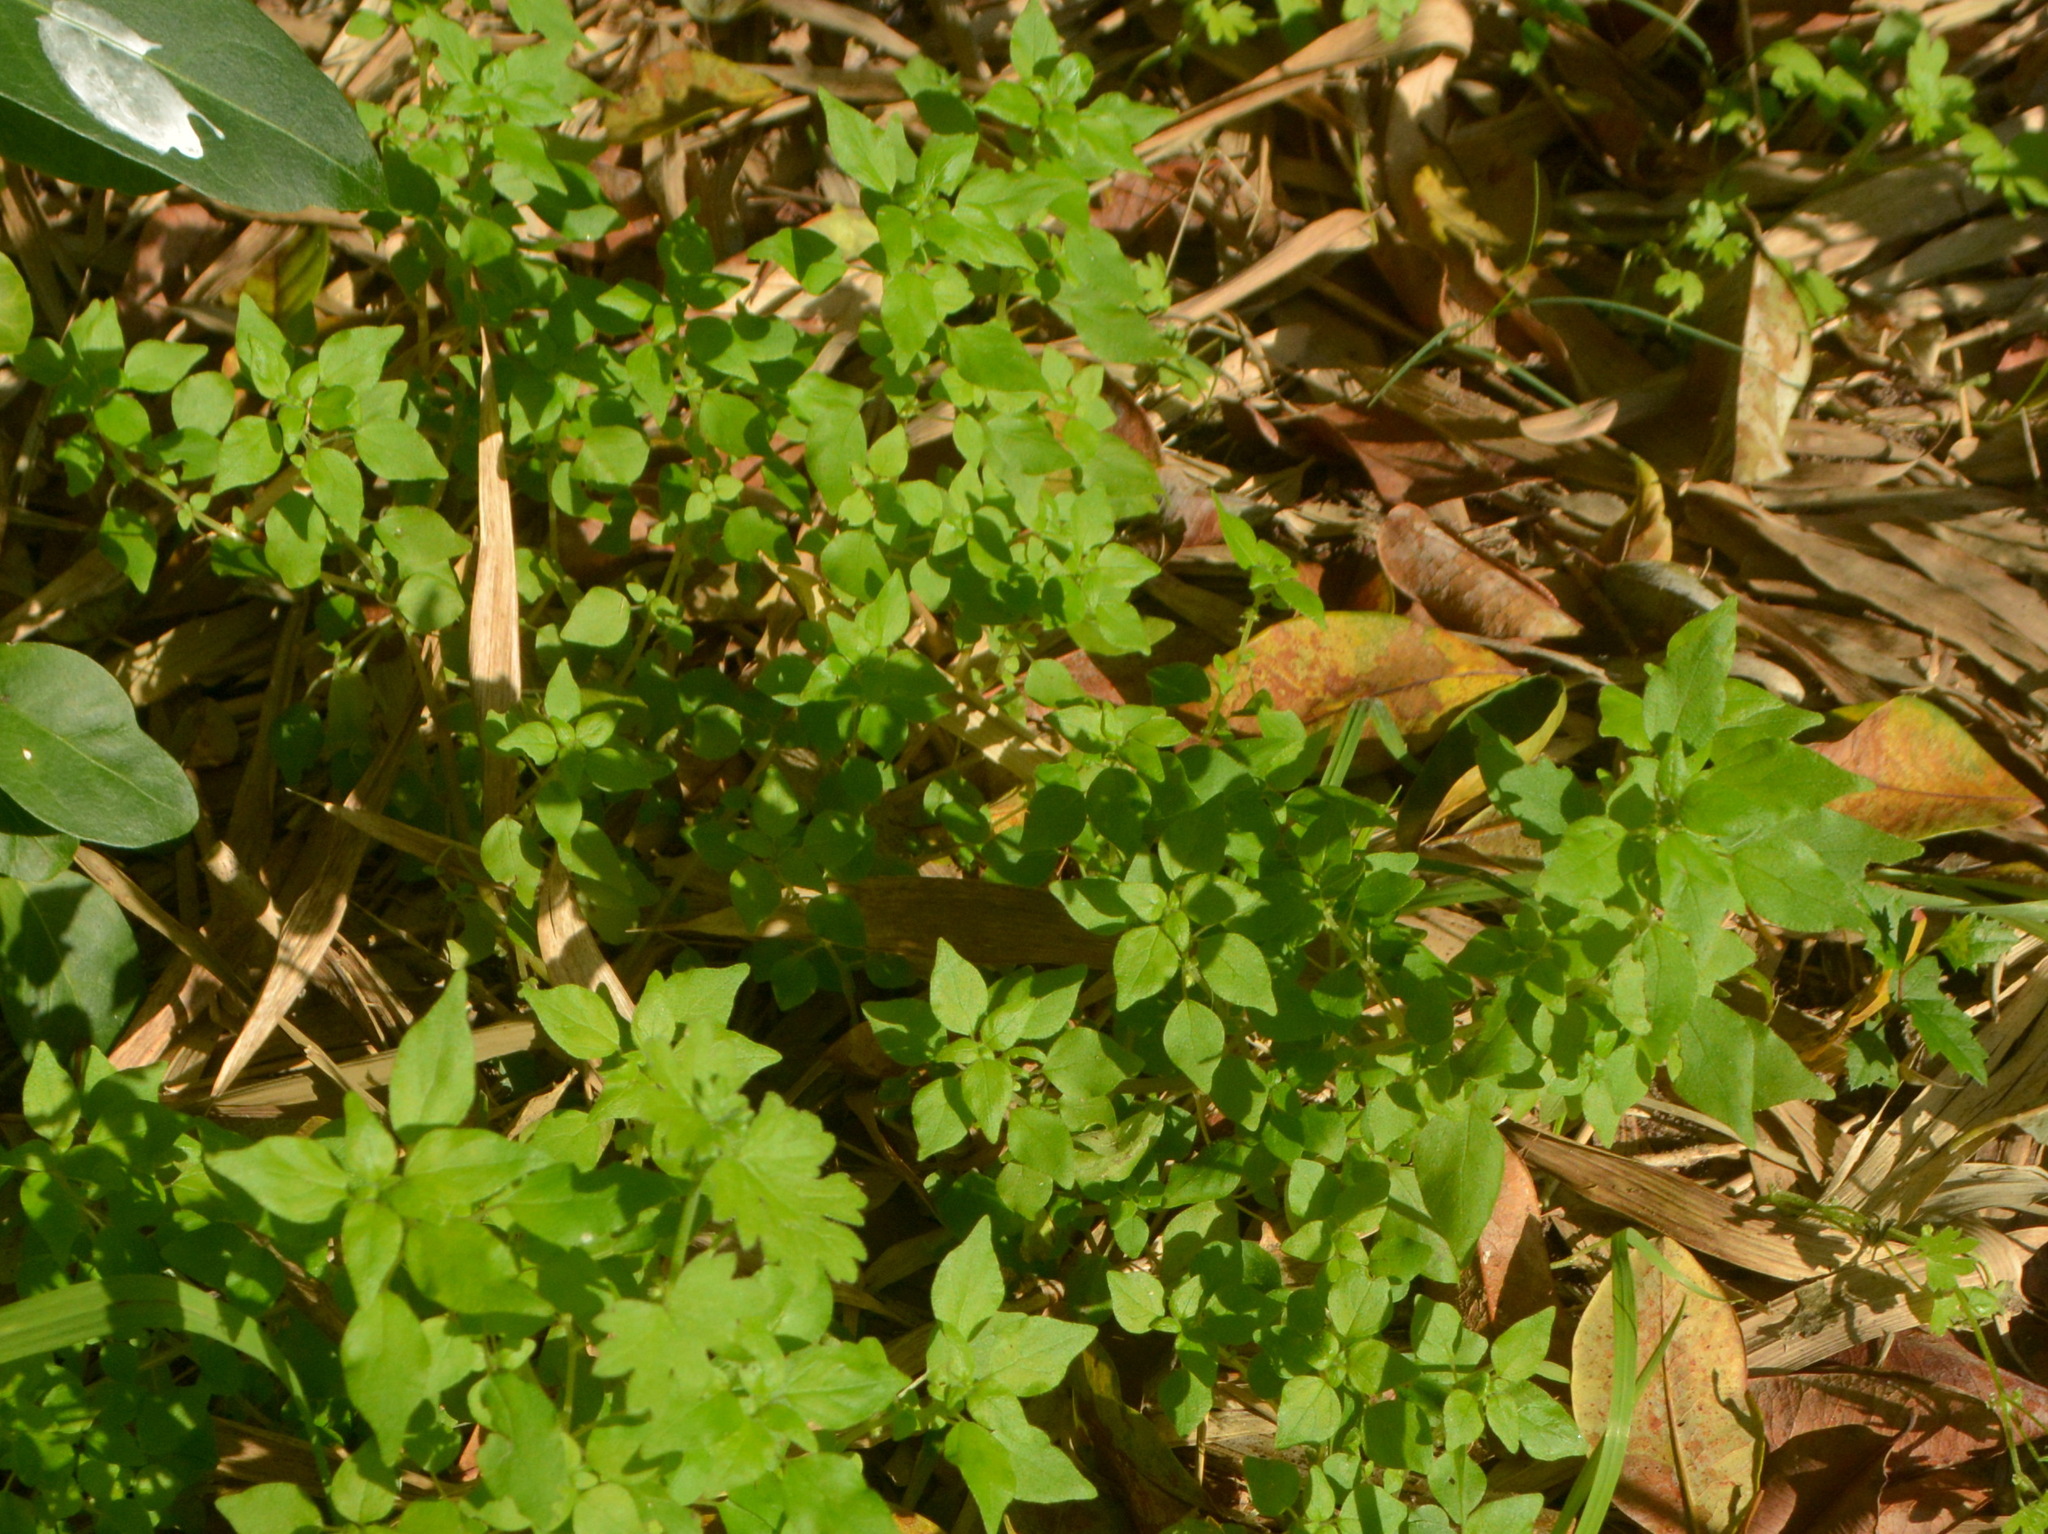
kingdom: Plantae
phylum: Tracheophyta
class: Magnoliopsida
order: Rosales
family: Urticaceae
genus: Parietaria
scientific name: Parietaria debilis
